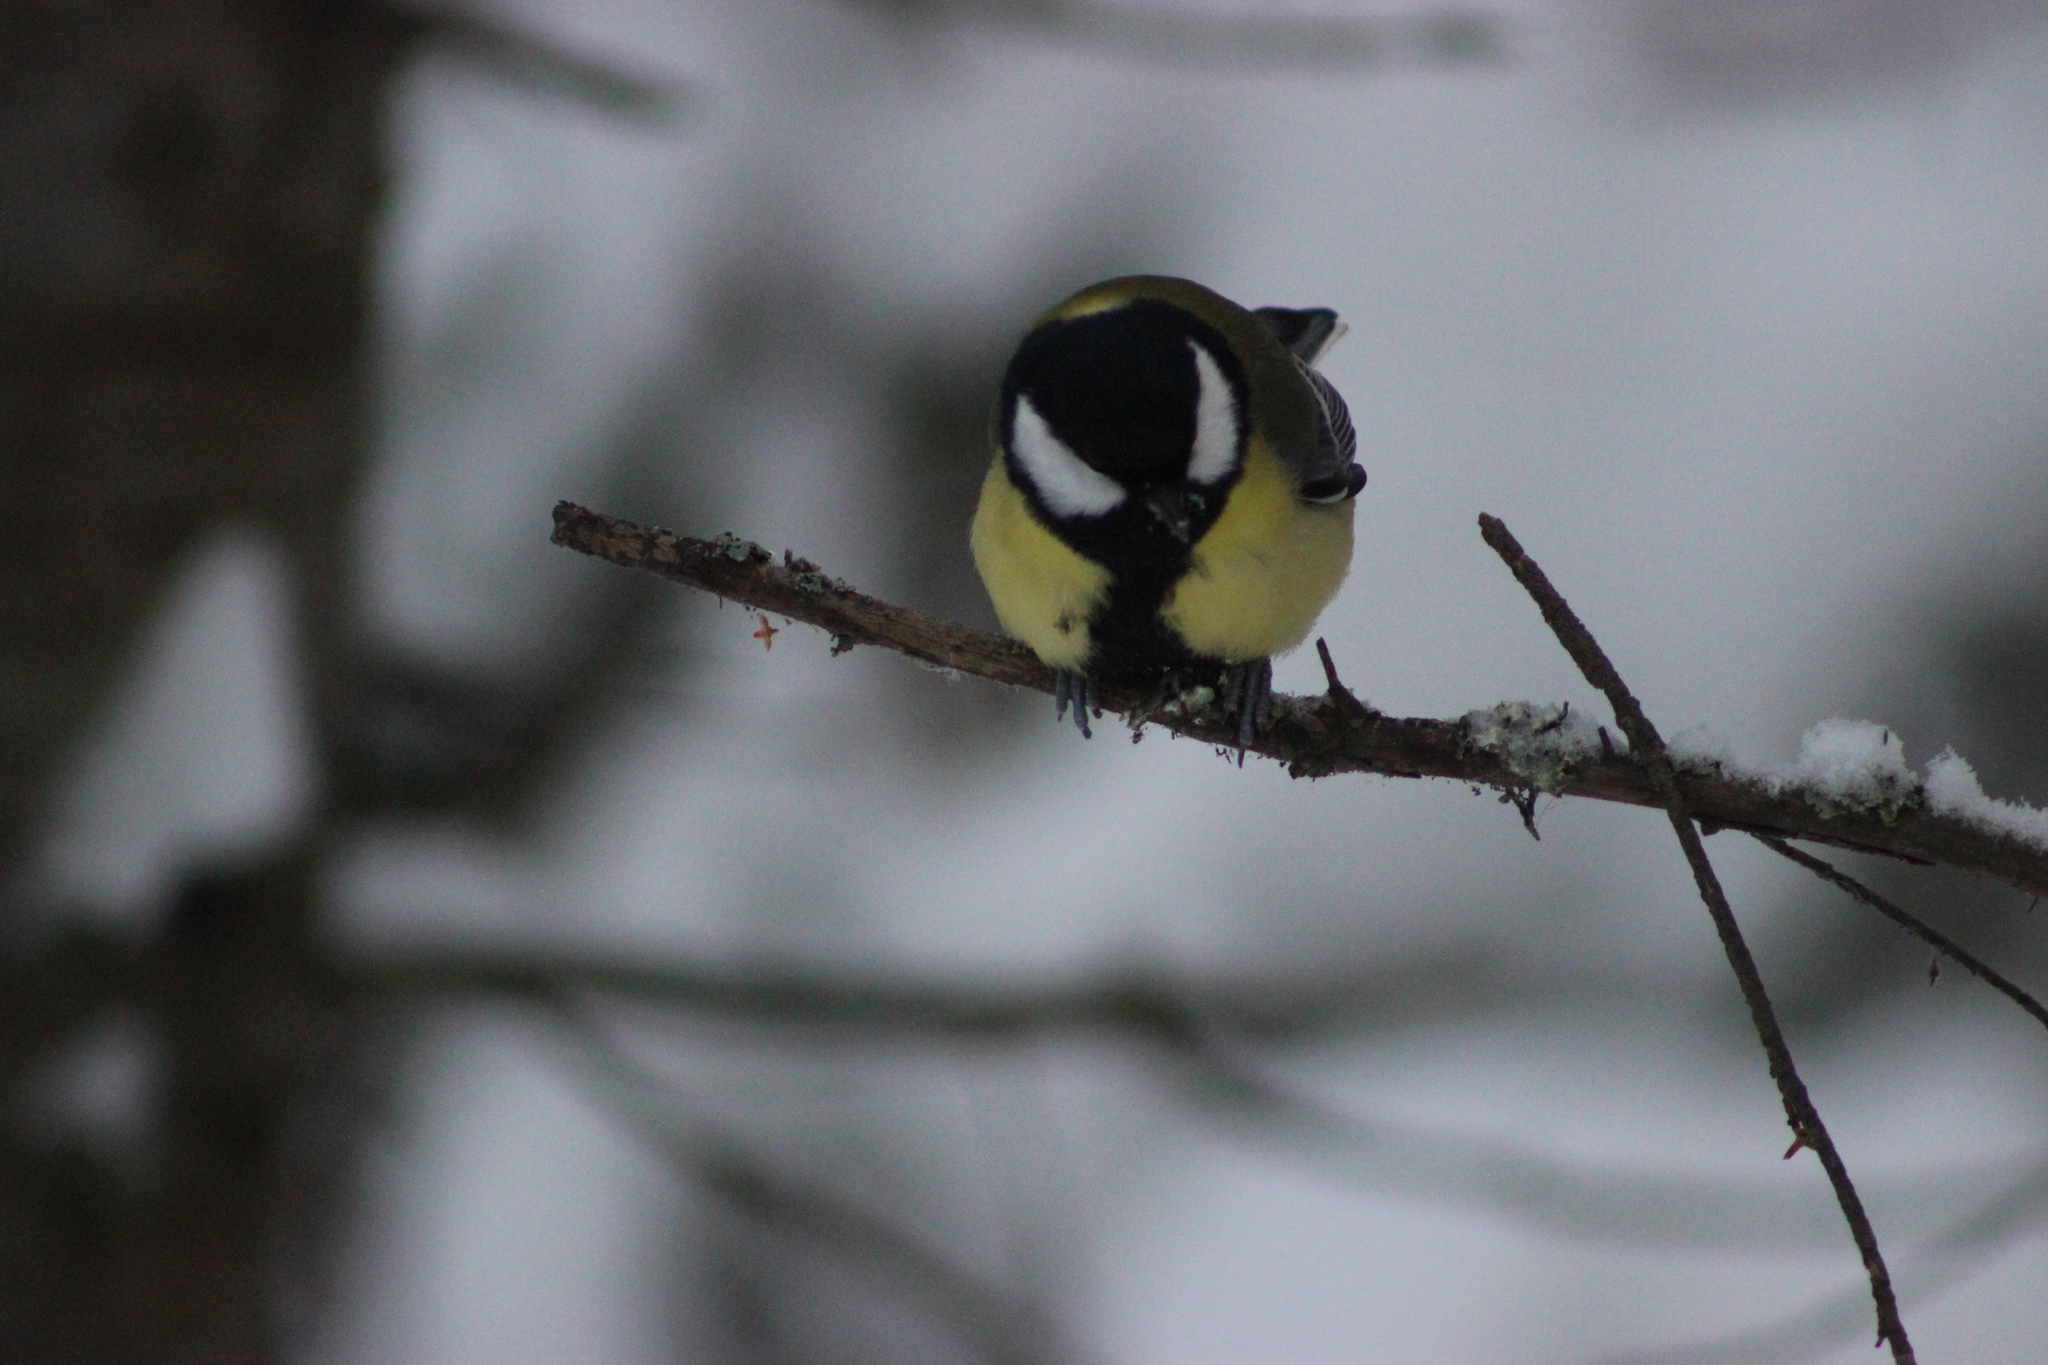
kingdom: Animalia
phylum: Chordata
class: Aves
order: Passeriformes
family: Paridae
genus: Parus
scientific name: Parus major
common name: Great tit
